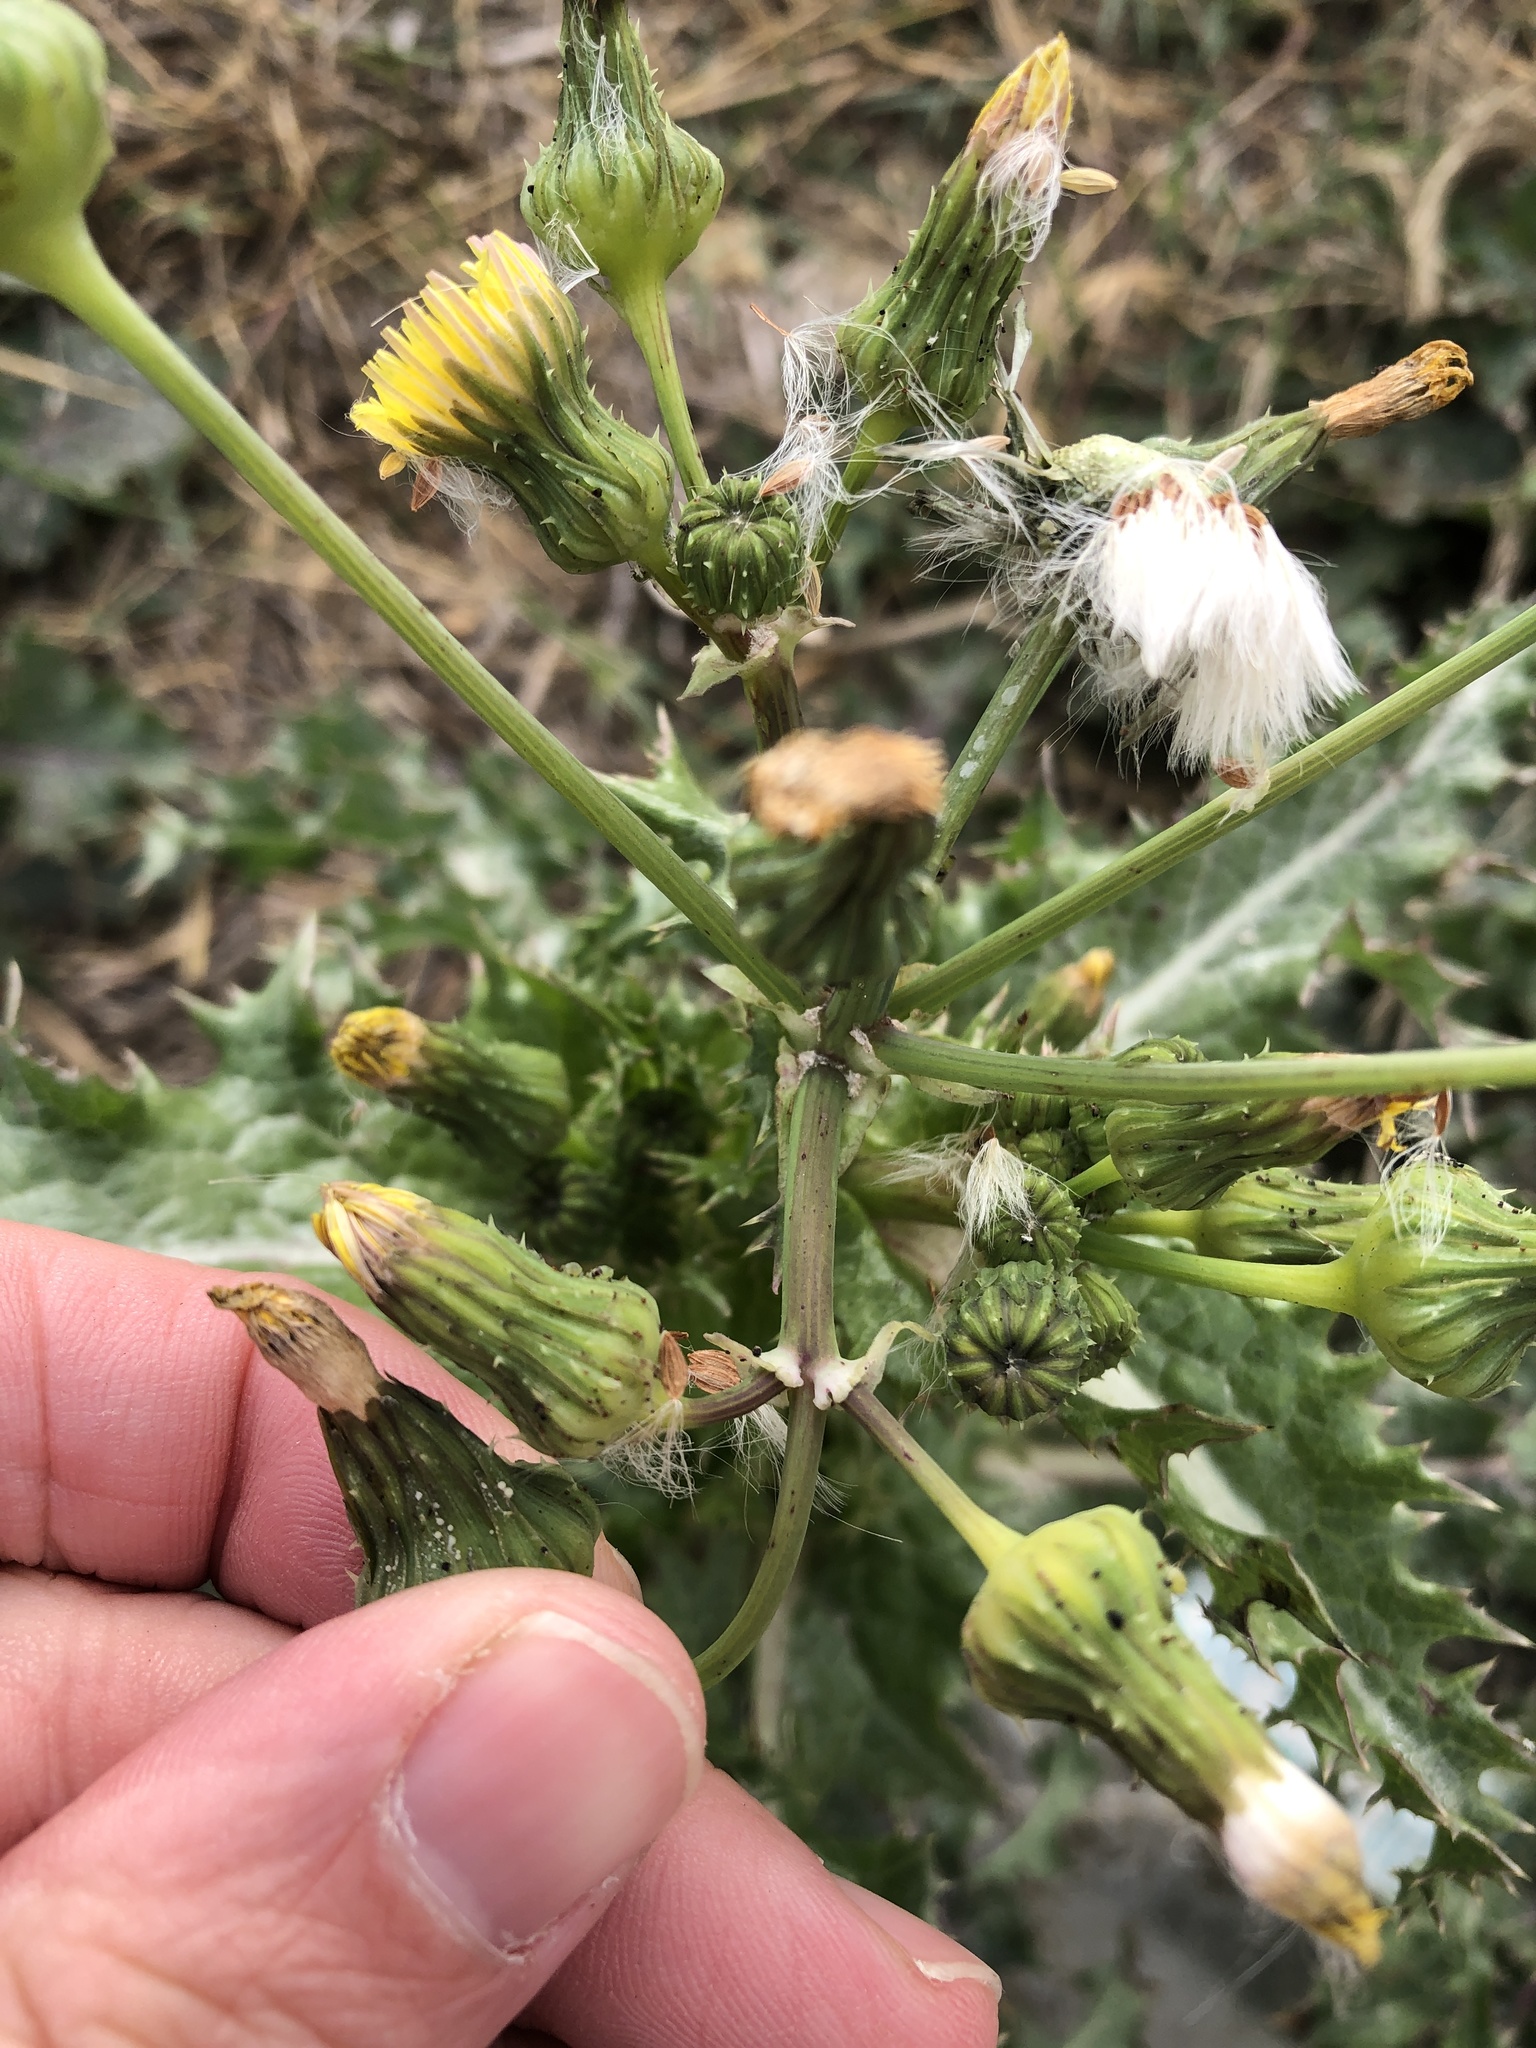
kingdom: Plantae
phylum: Tracheophyta
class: Magnoliopsida
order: Asterales
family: Asteraceae
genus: Sonchus
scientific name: Sonchus asper
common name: Prickly sow-thistle
